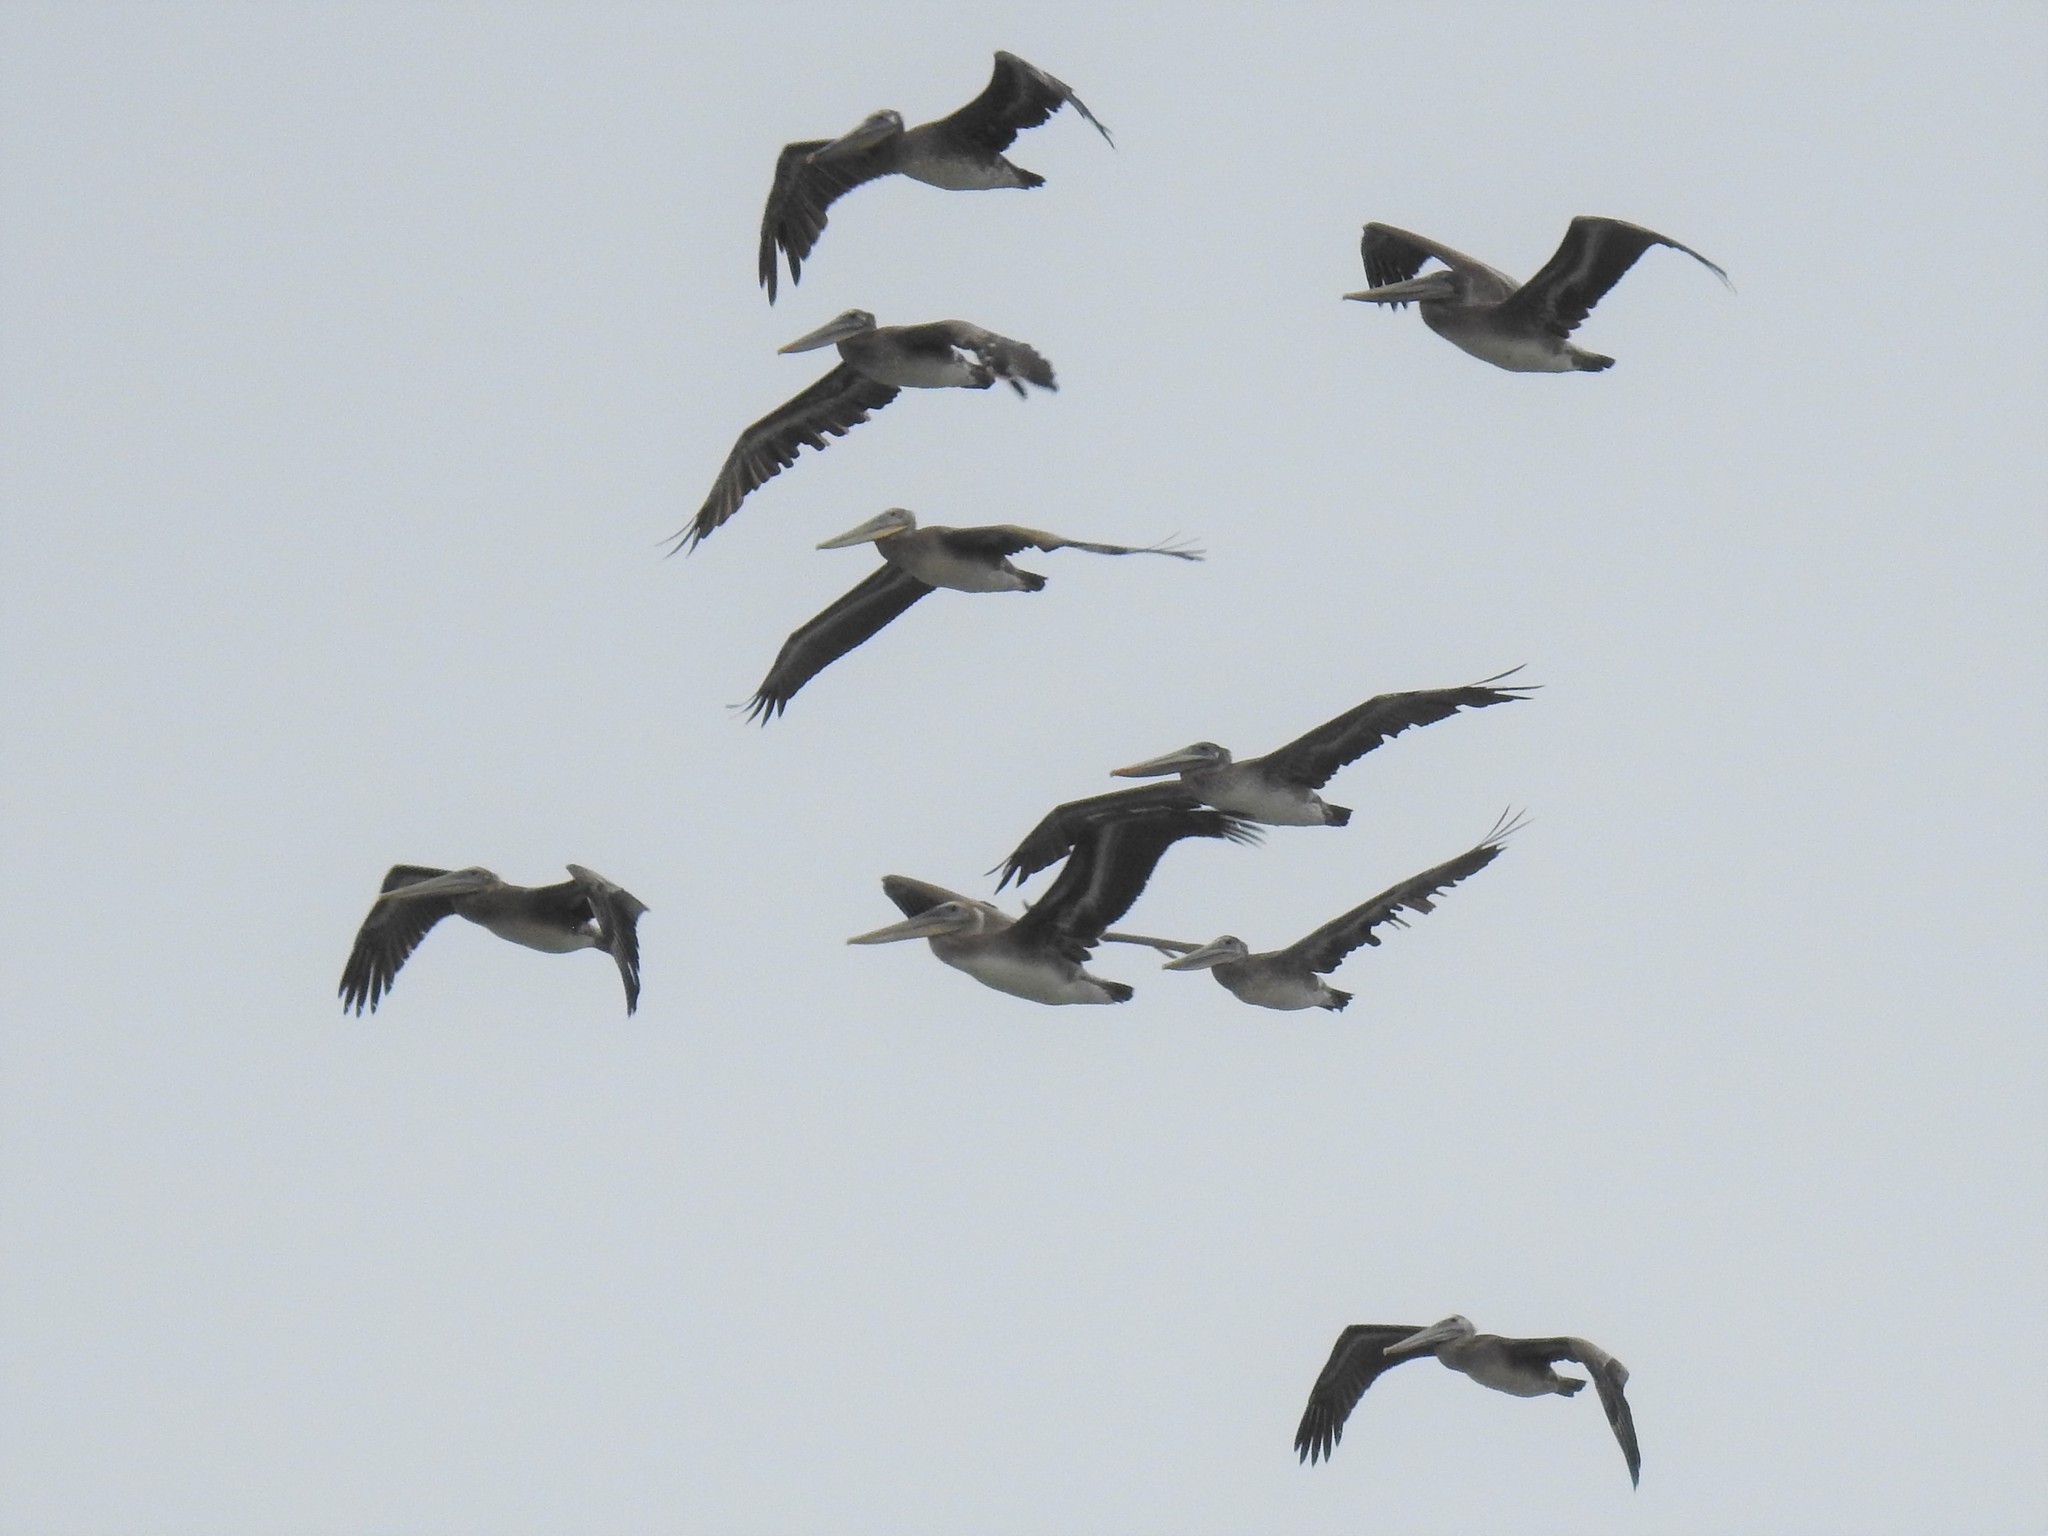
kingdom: Animalia
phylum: Chordata
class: Aves
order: Pelecaniformes
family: Pelecanidae
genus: Pelecanus
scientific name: Pelecanus occidentalis
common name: Brown pelican
